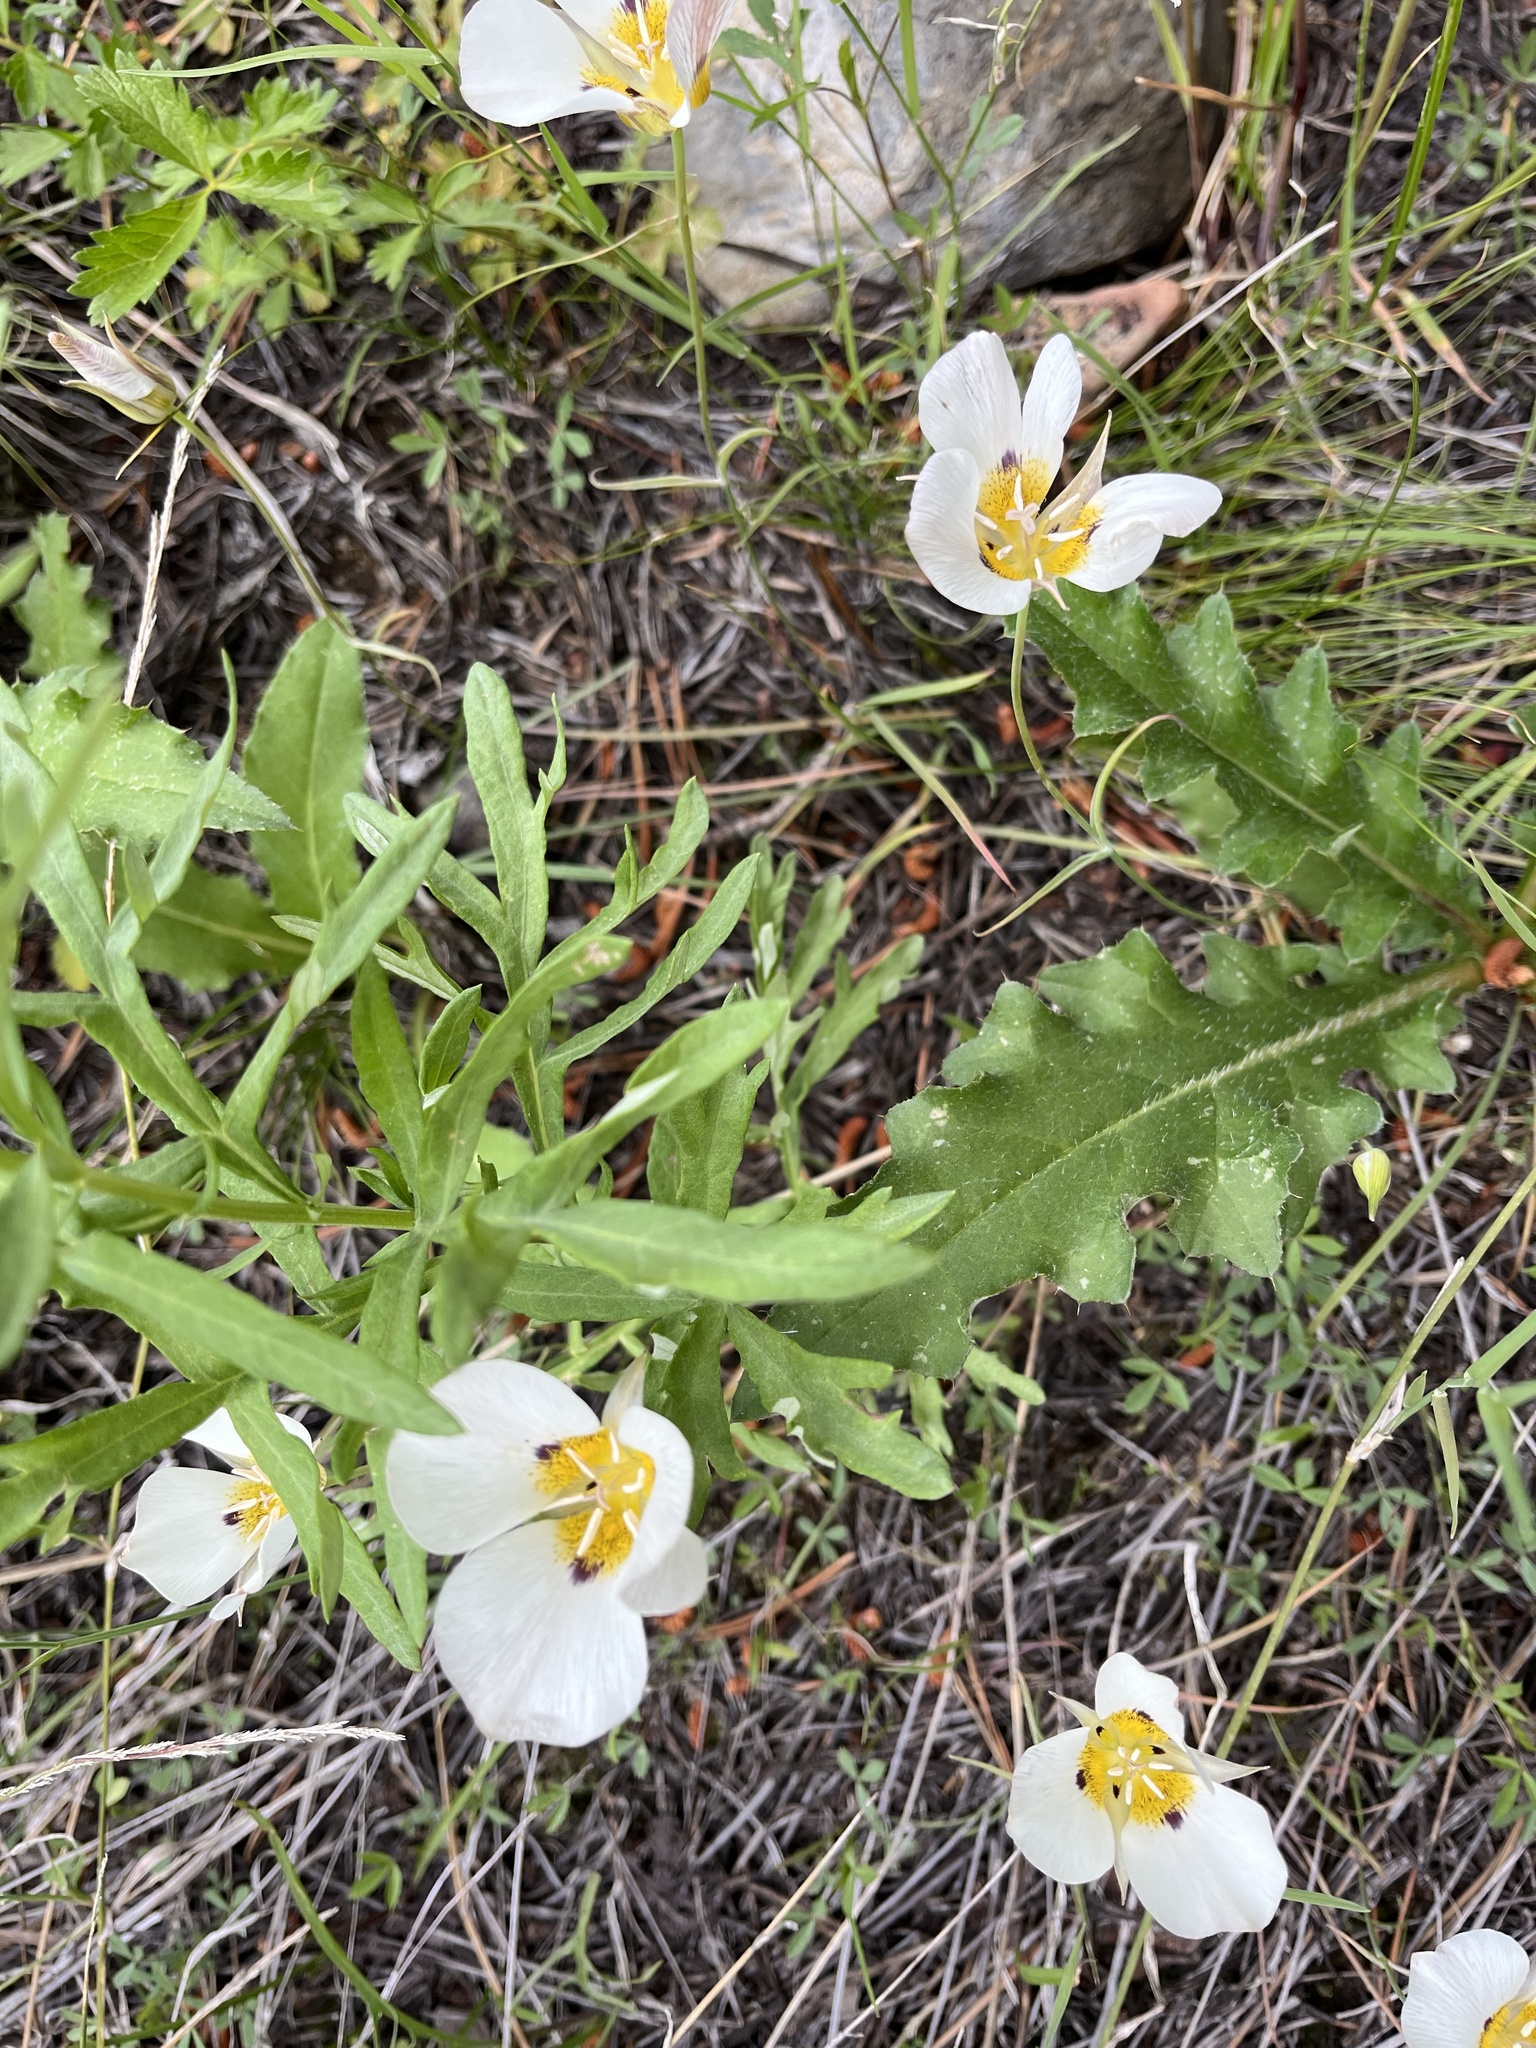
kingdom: Plantae
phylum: Tracheophyta
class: Liliopsida
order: Liliales
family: Liliaceae
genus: Calochortus
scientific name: Calochortus leichtlinii
